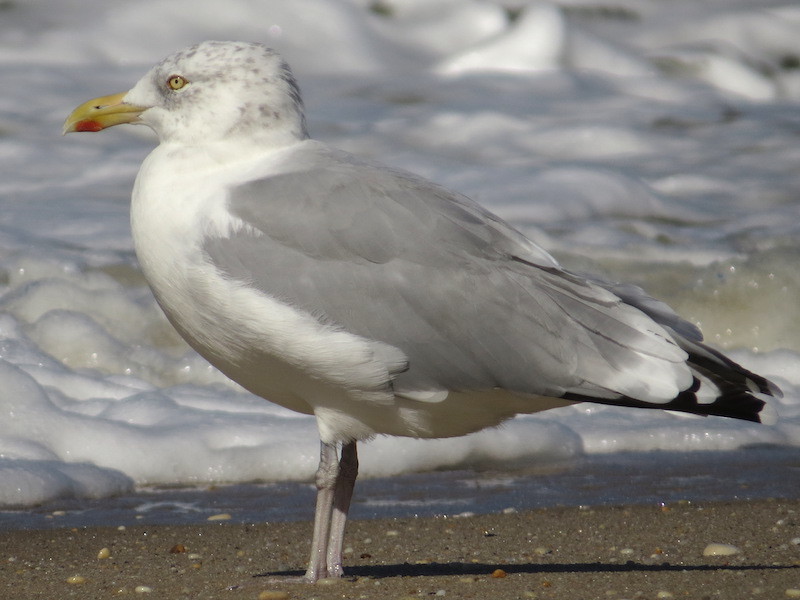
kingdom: Animalia
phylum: Chordata
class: Aves
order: Charadriiformes
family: Laridae
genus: Larus
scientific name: Larus argentatus
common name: Herring gull
